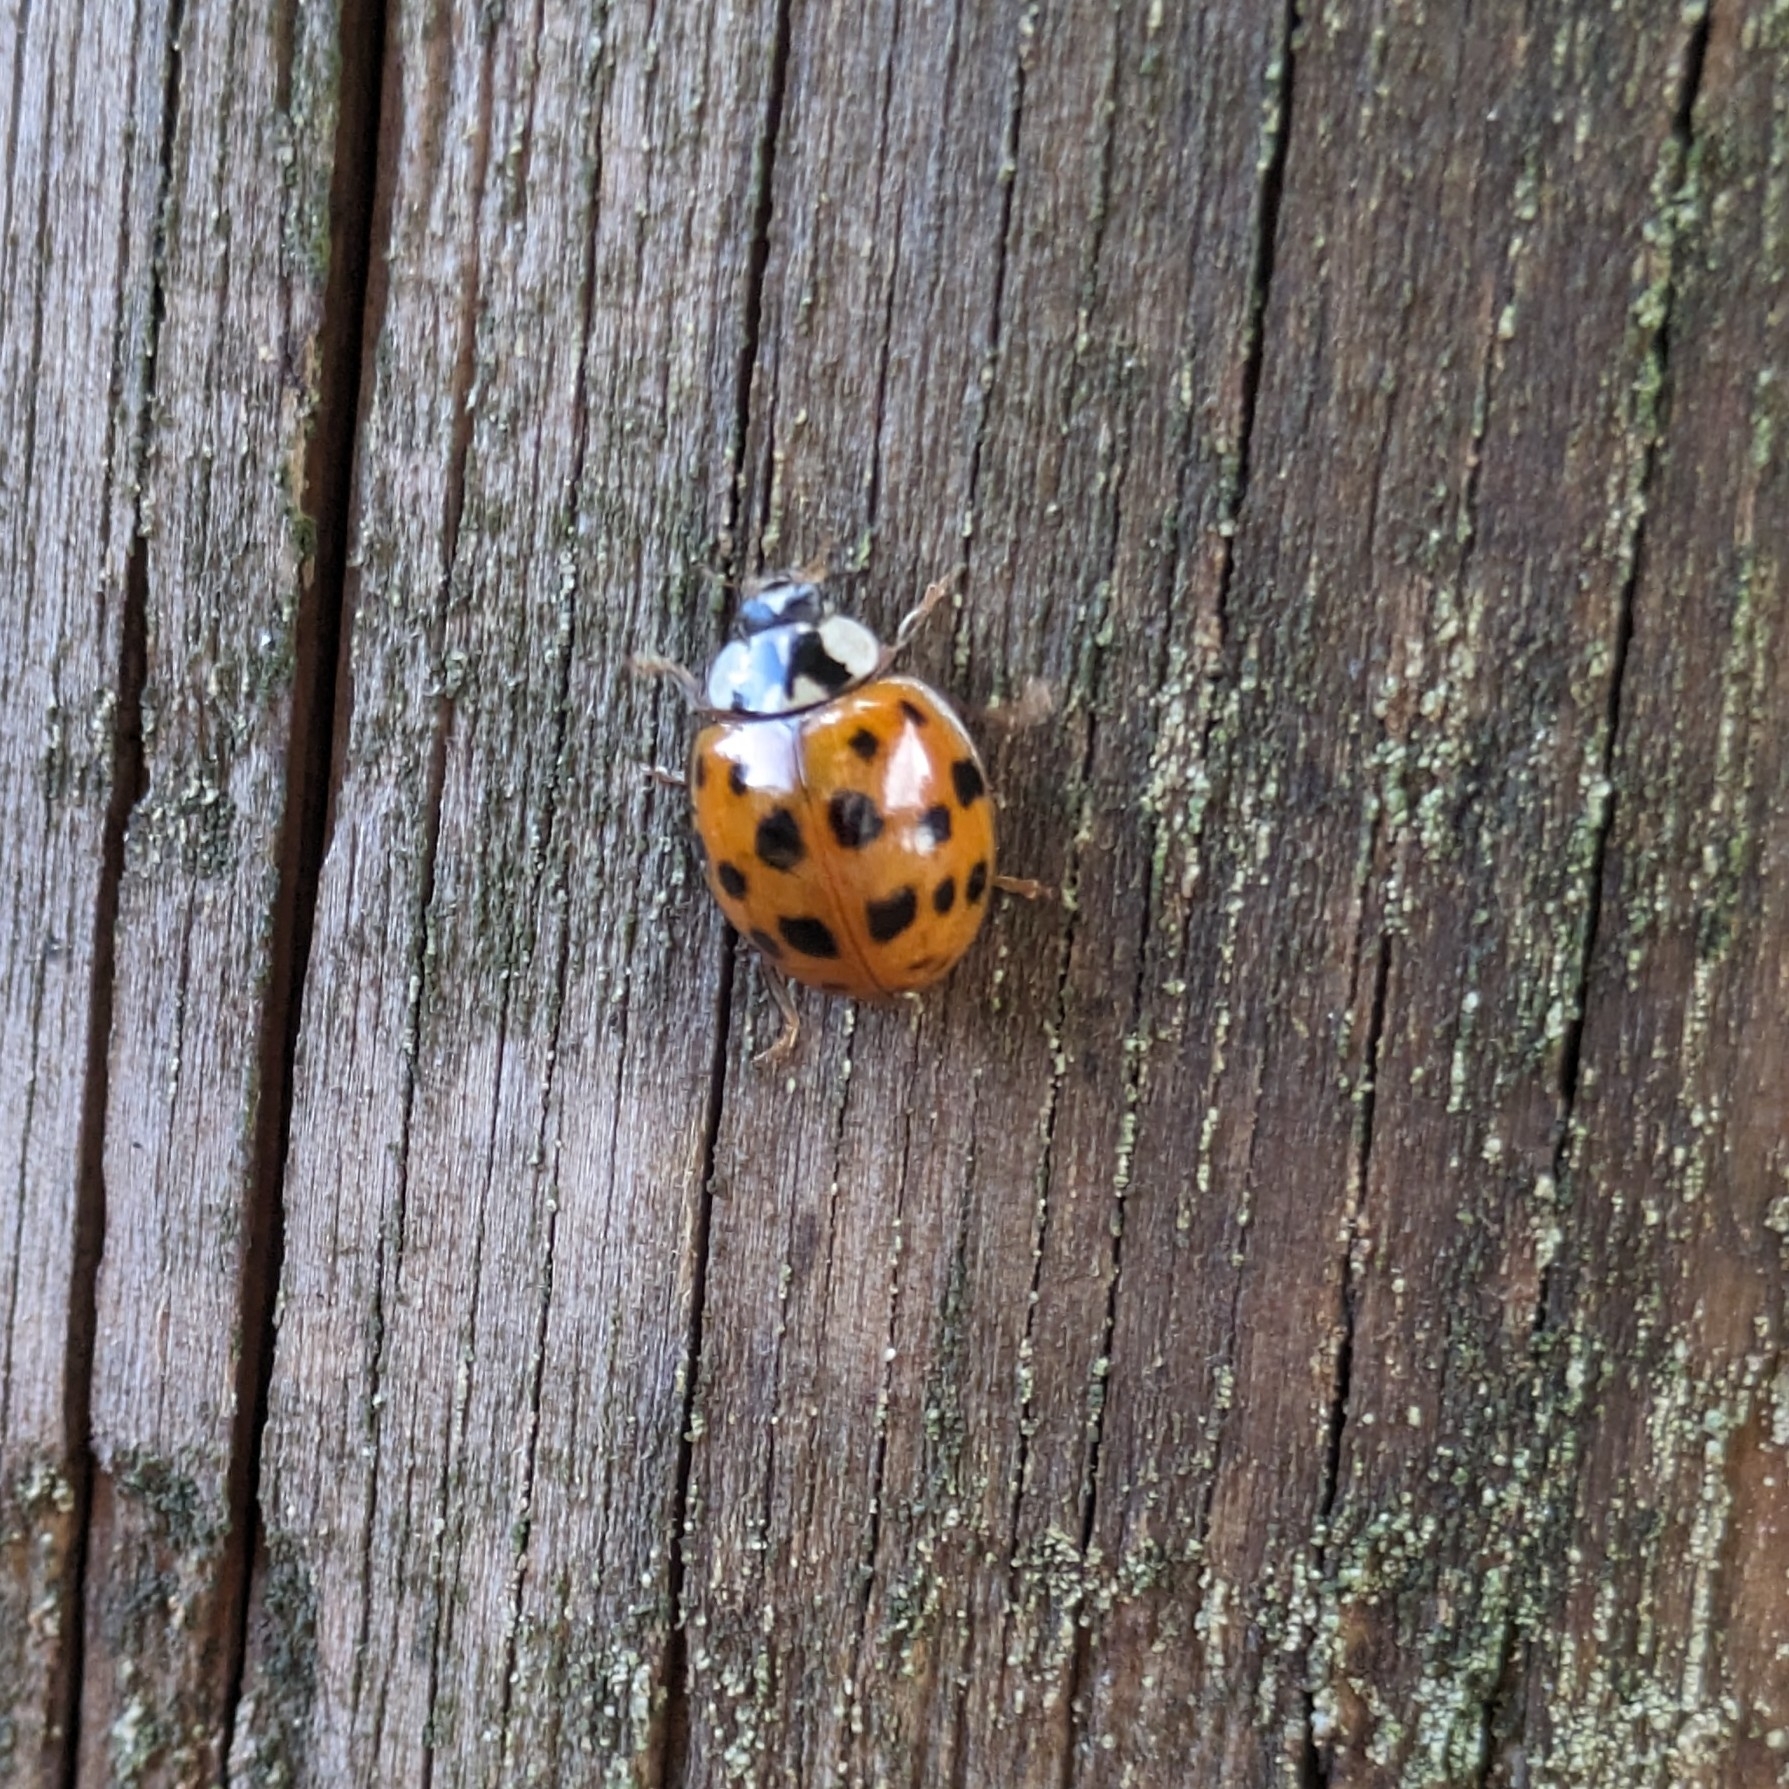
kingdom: Animalia
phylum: Arthropoda
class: Insecta
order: Coleoptera
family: Coccinellidae
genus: Harmonia
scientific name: Harmonia axyridis
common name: Harlequin ladybird
